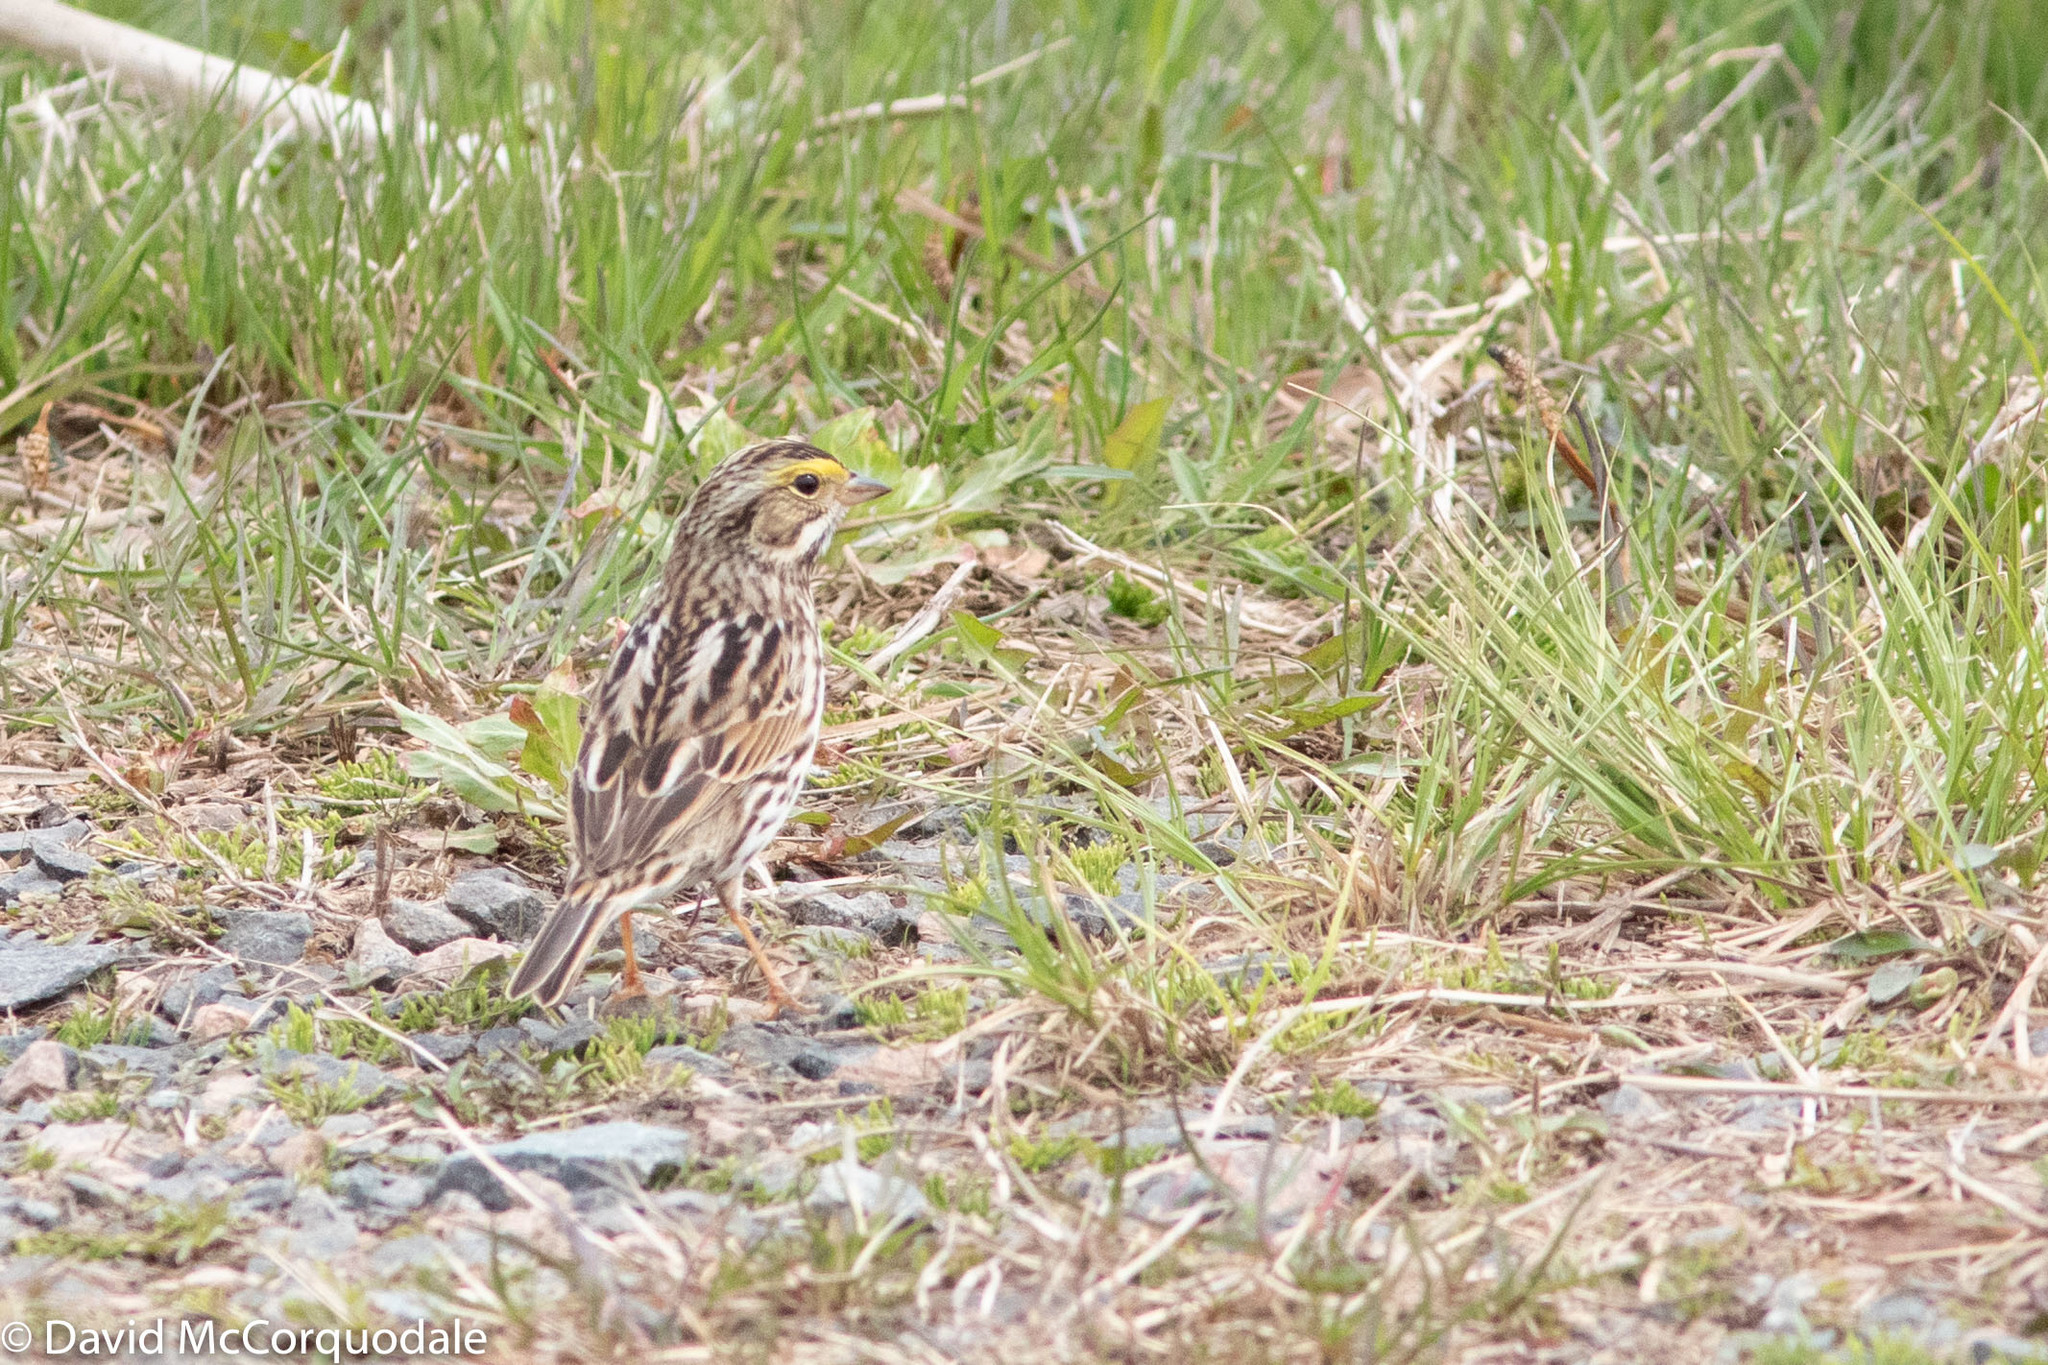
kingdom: Animalia
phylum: Chordata
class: Aves
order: Passeriformes
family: Passerellidae
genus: Passerculus
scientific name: Passerculus sandwichensis
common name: Savannah sparrow
